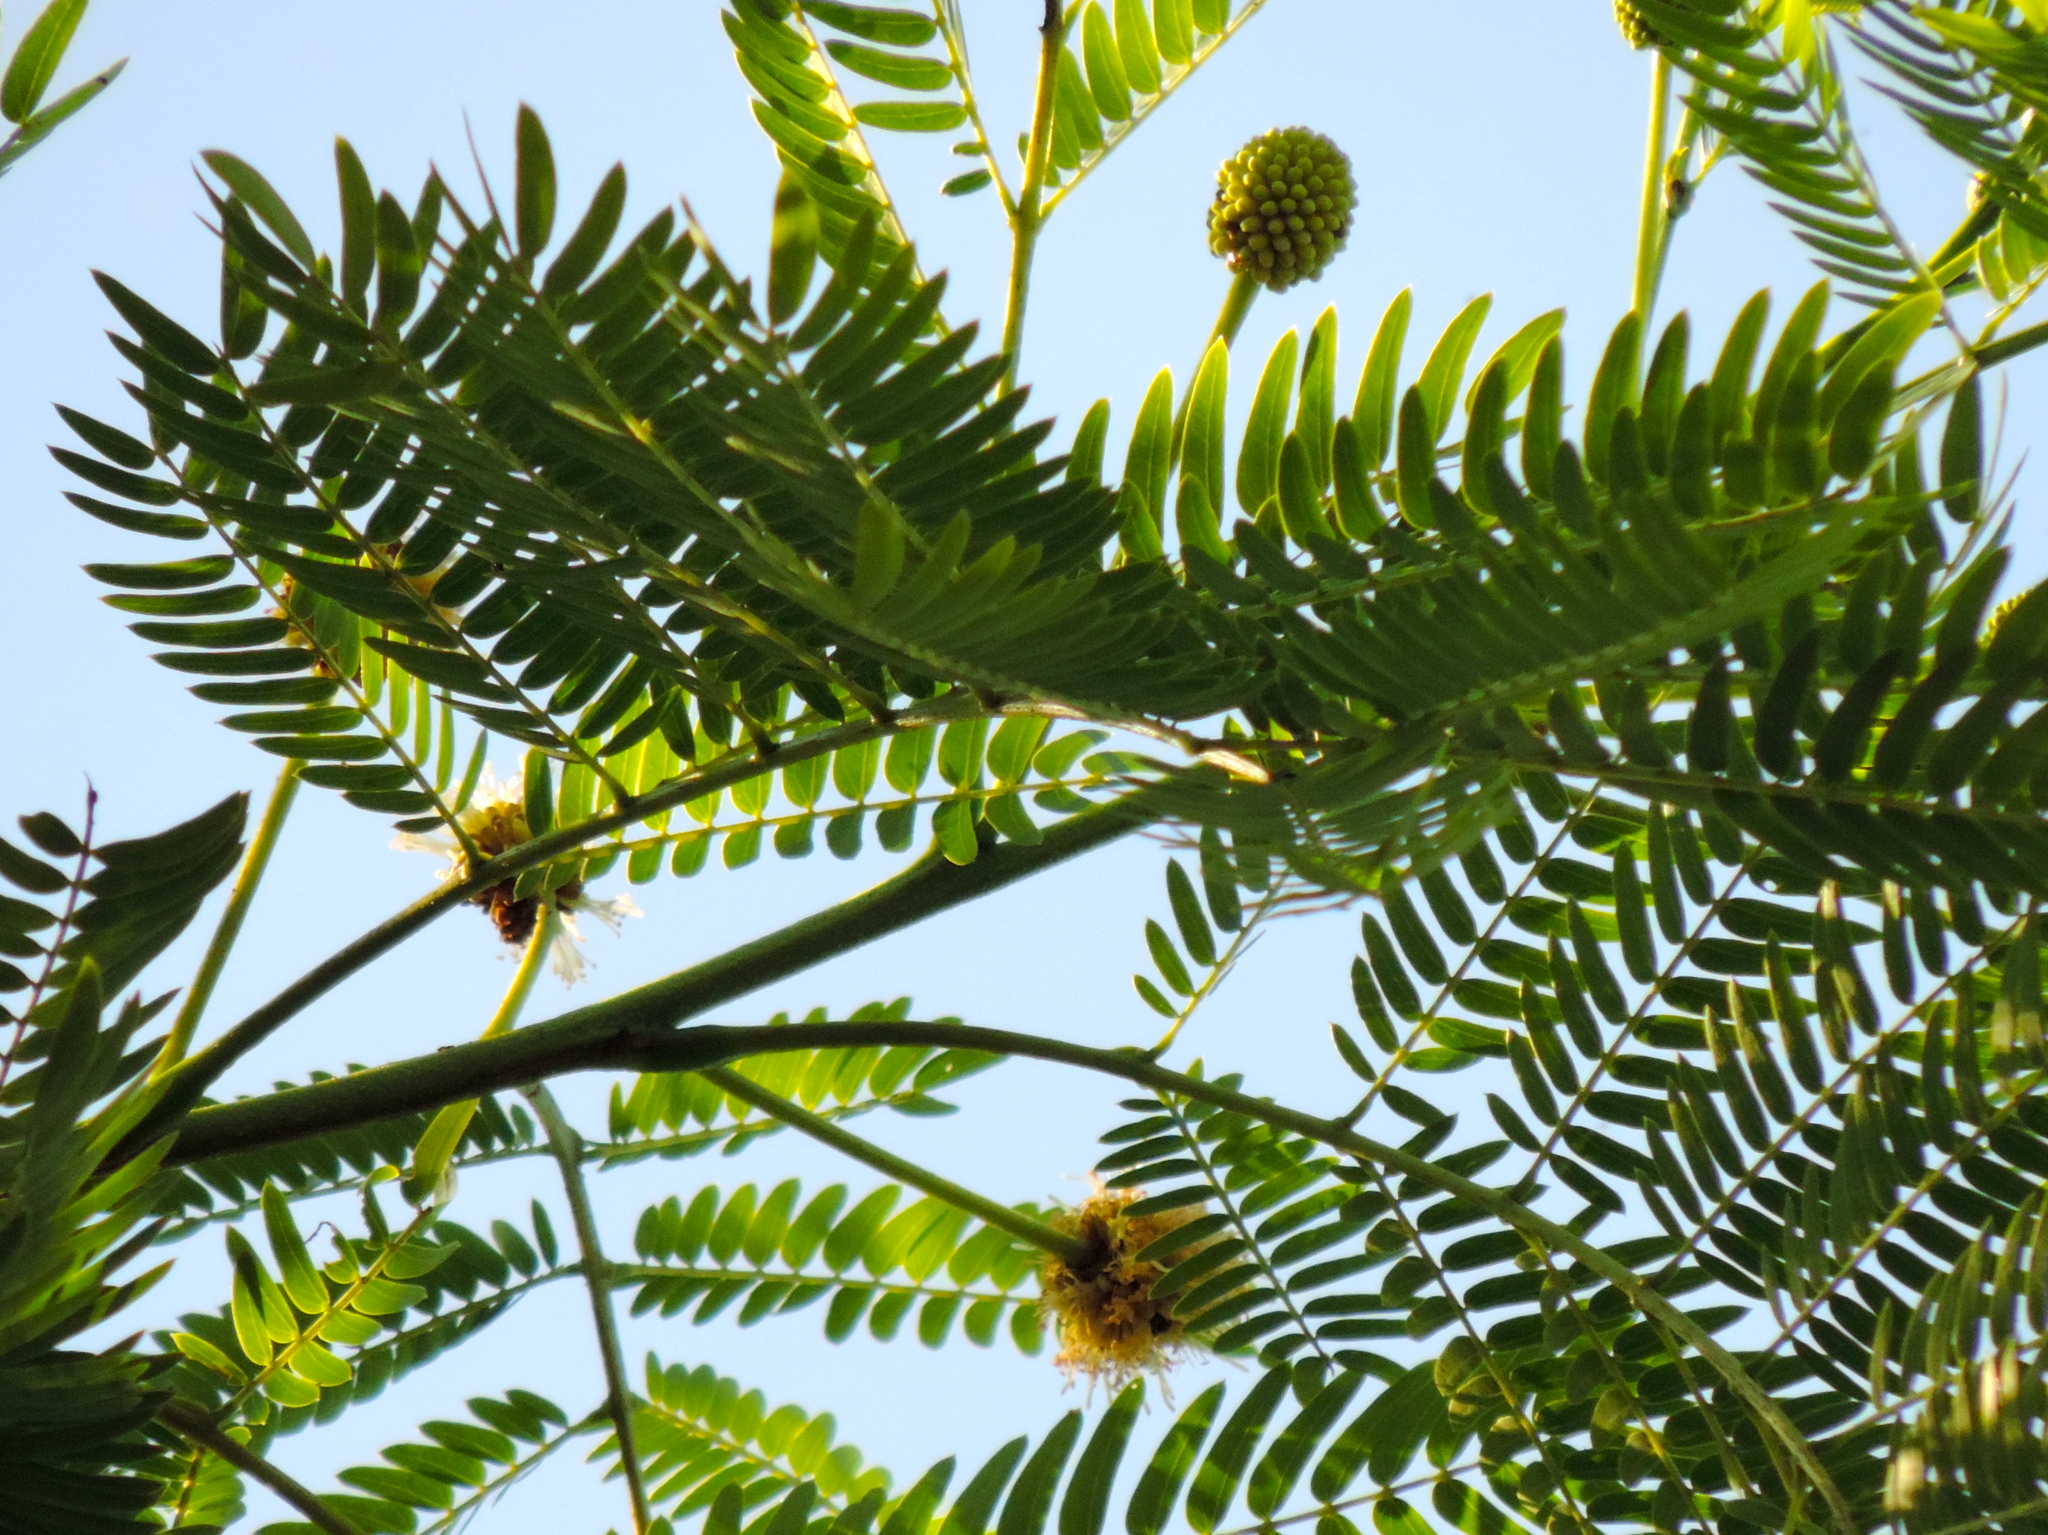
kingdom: Plantae
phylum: Tracheophyta
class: Magnoliopsida
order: Fabales
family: Fabaceae
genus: Leucaena
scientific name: Leucaena leucocephala
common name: White leadtree
